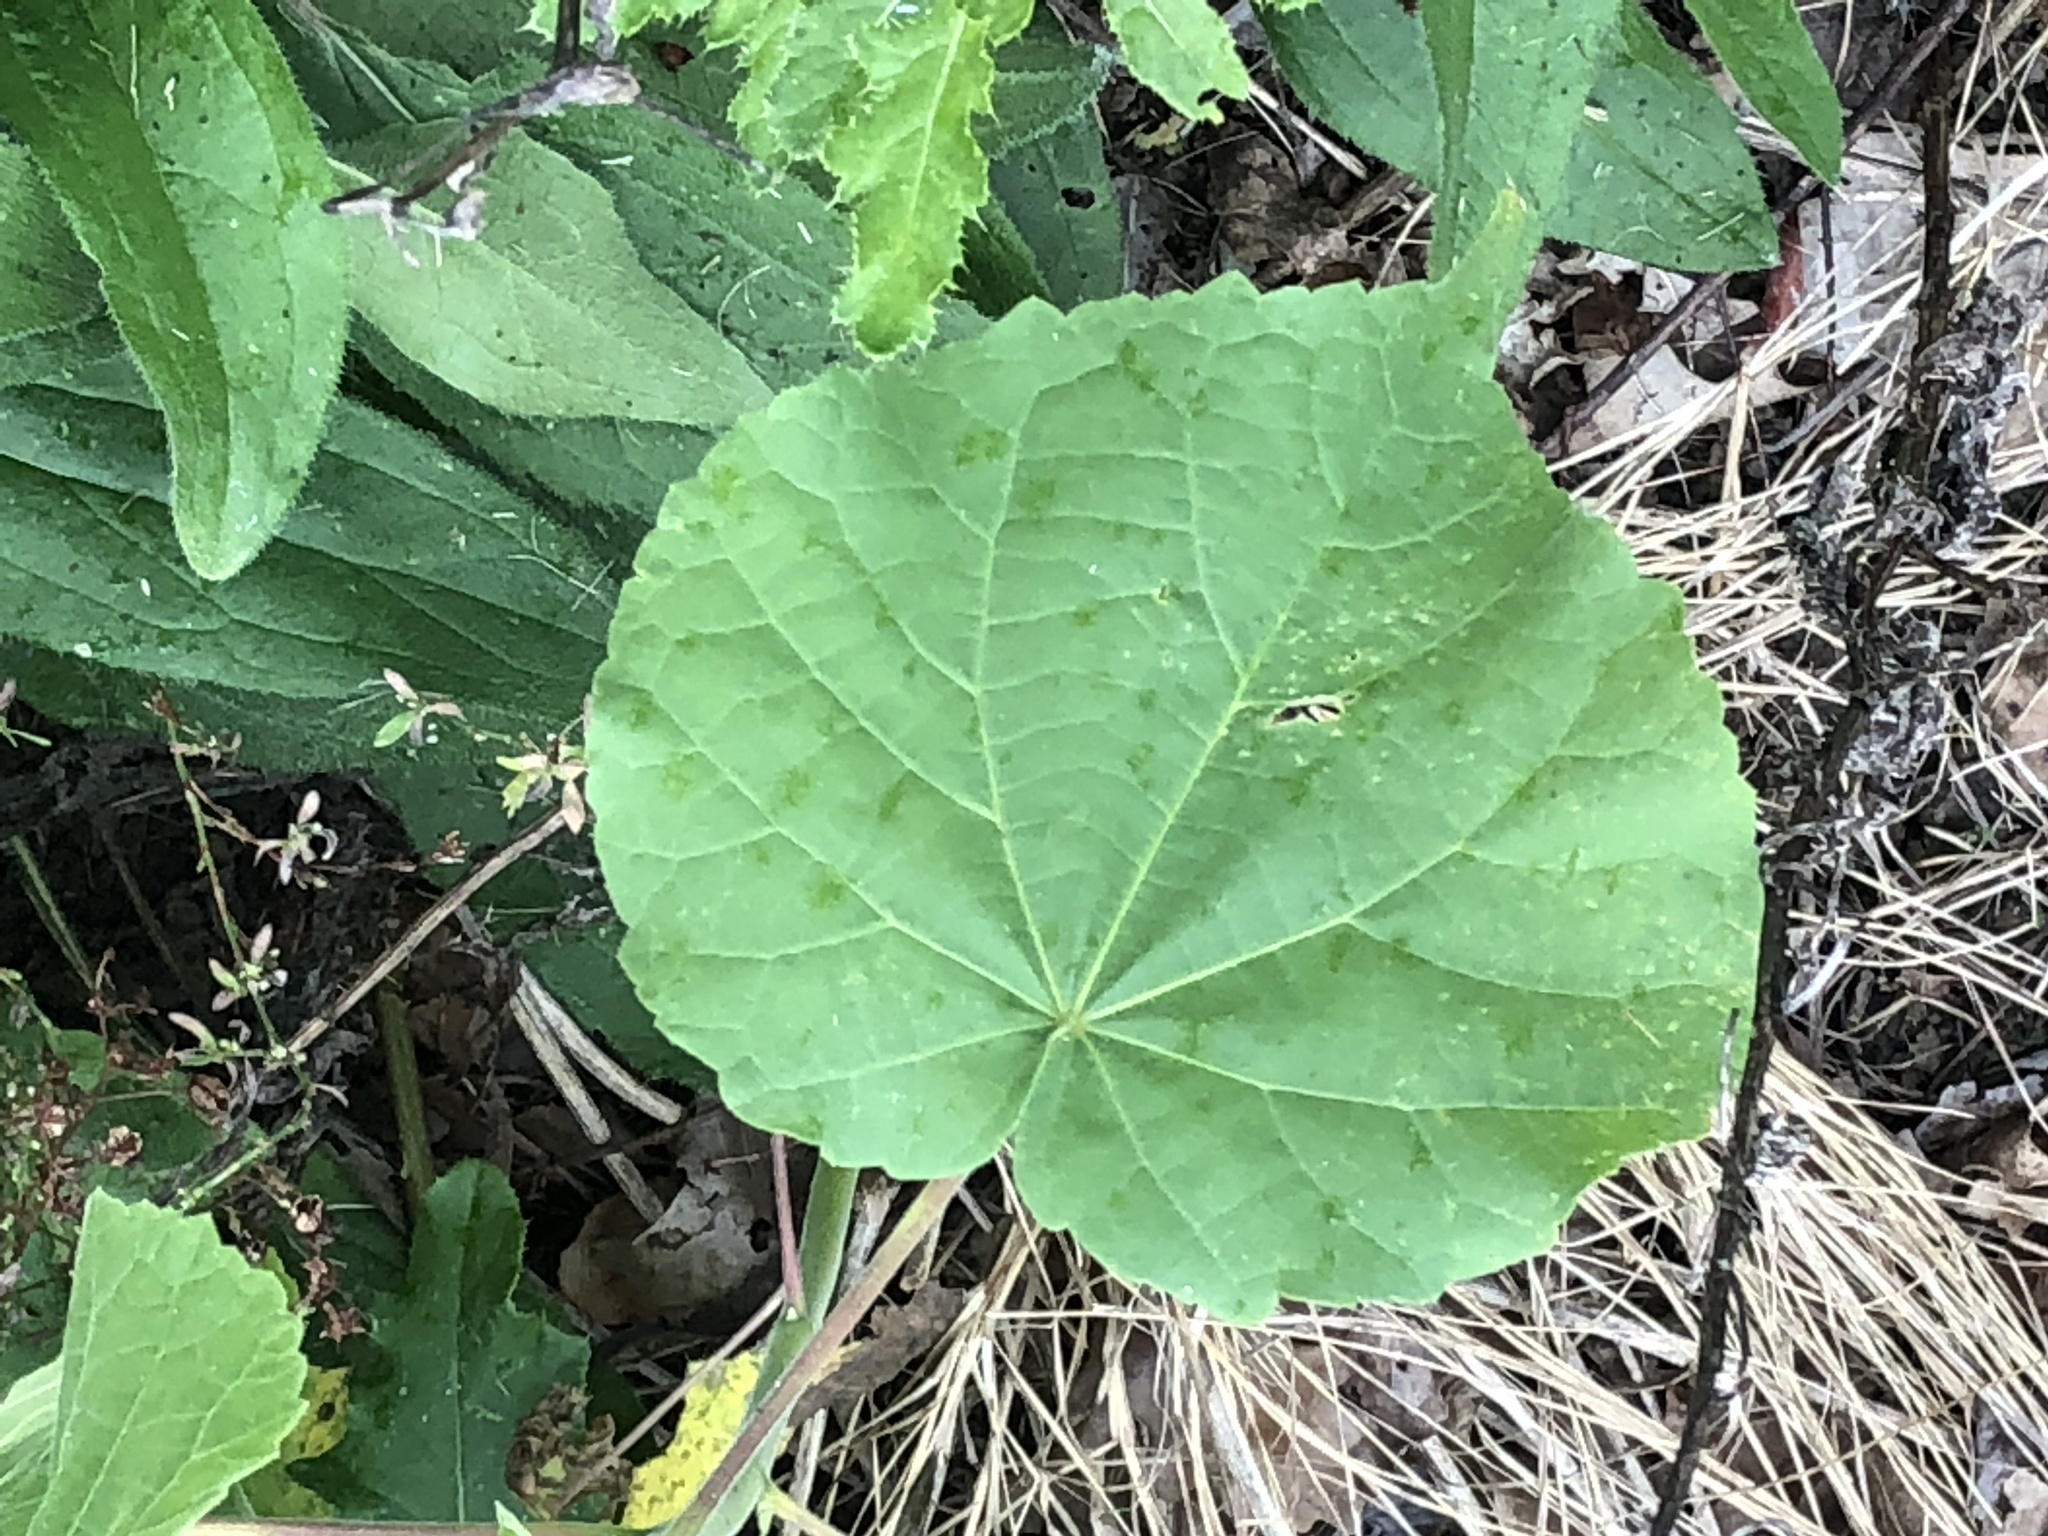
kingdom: Plantae
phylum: Tracheophyta
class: Magnoliopsida
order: Malvales
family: Malvaceae
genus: Abutilon
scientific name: Abutilon theophrasti
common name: Velvetleaf
